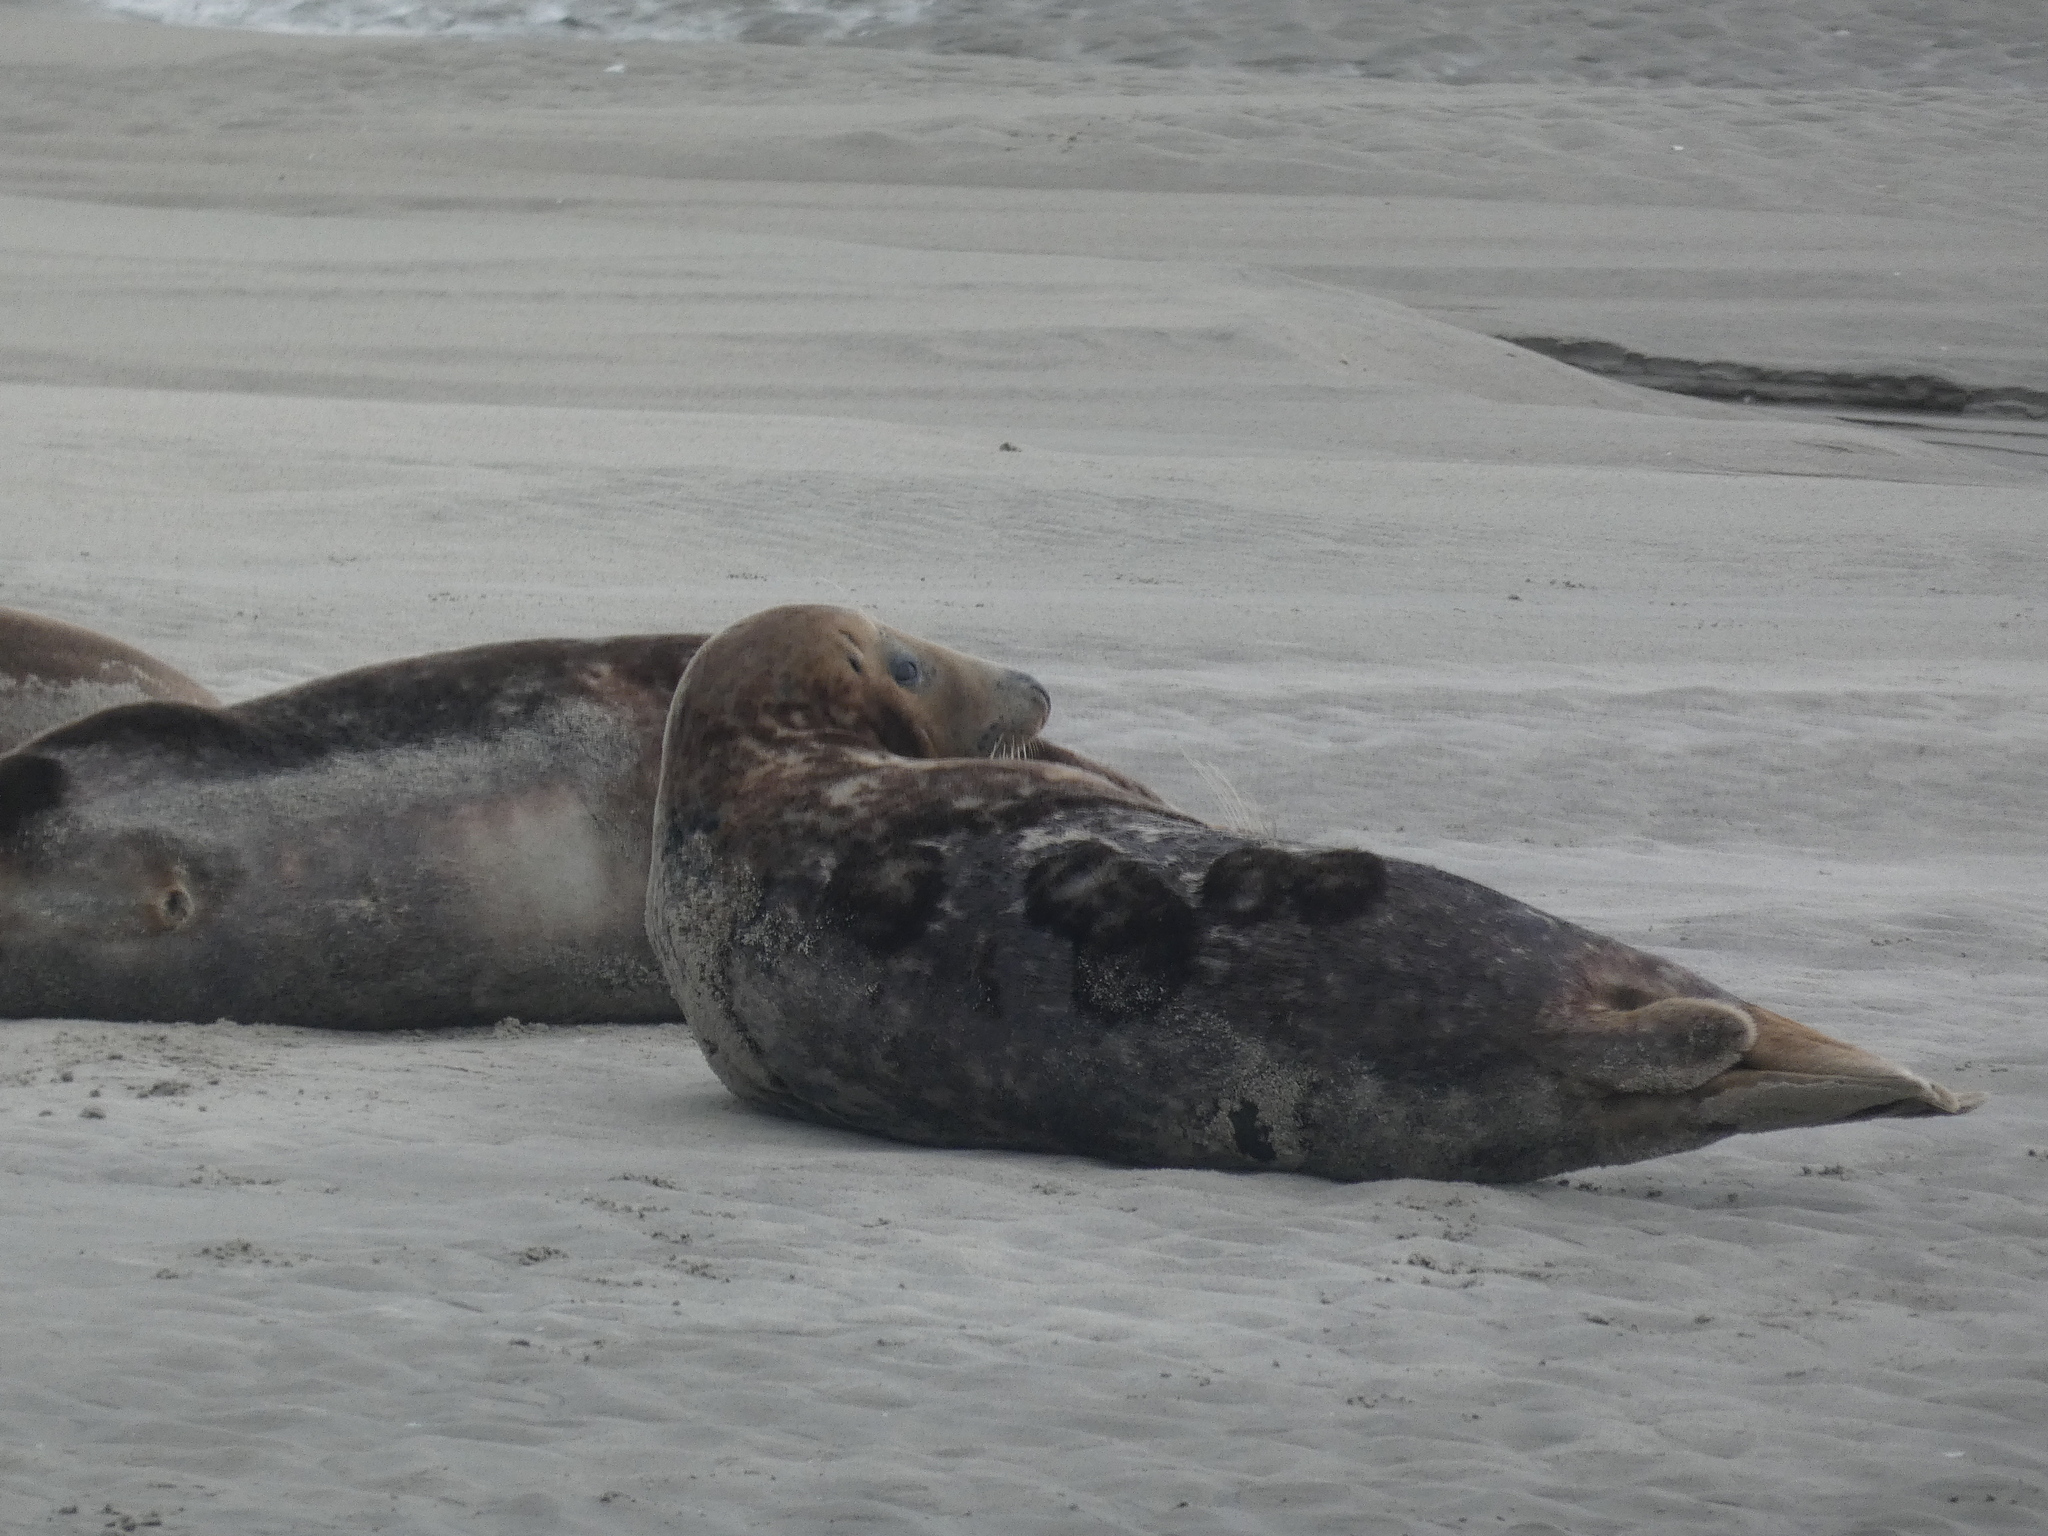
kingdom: Animalia
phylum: Chordata
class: Mammalia
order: Carnivora
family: Phocidae
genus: Halichoerus
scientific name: Halichoerus grypus
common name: Grey seal
